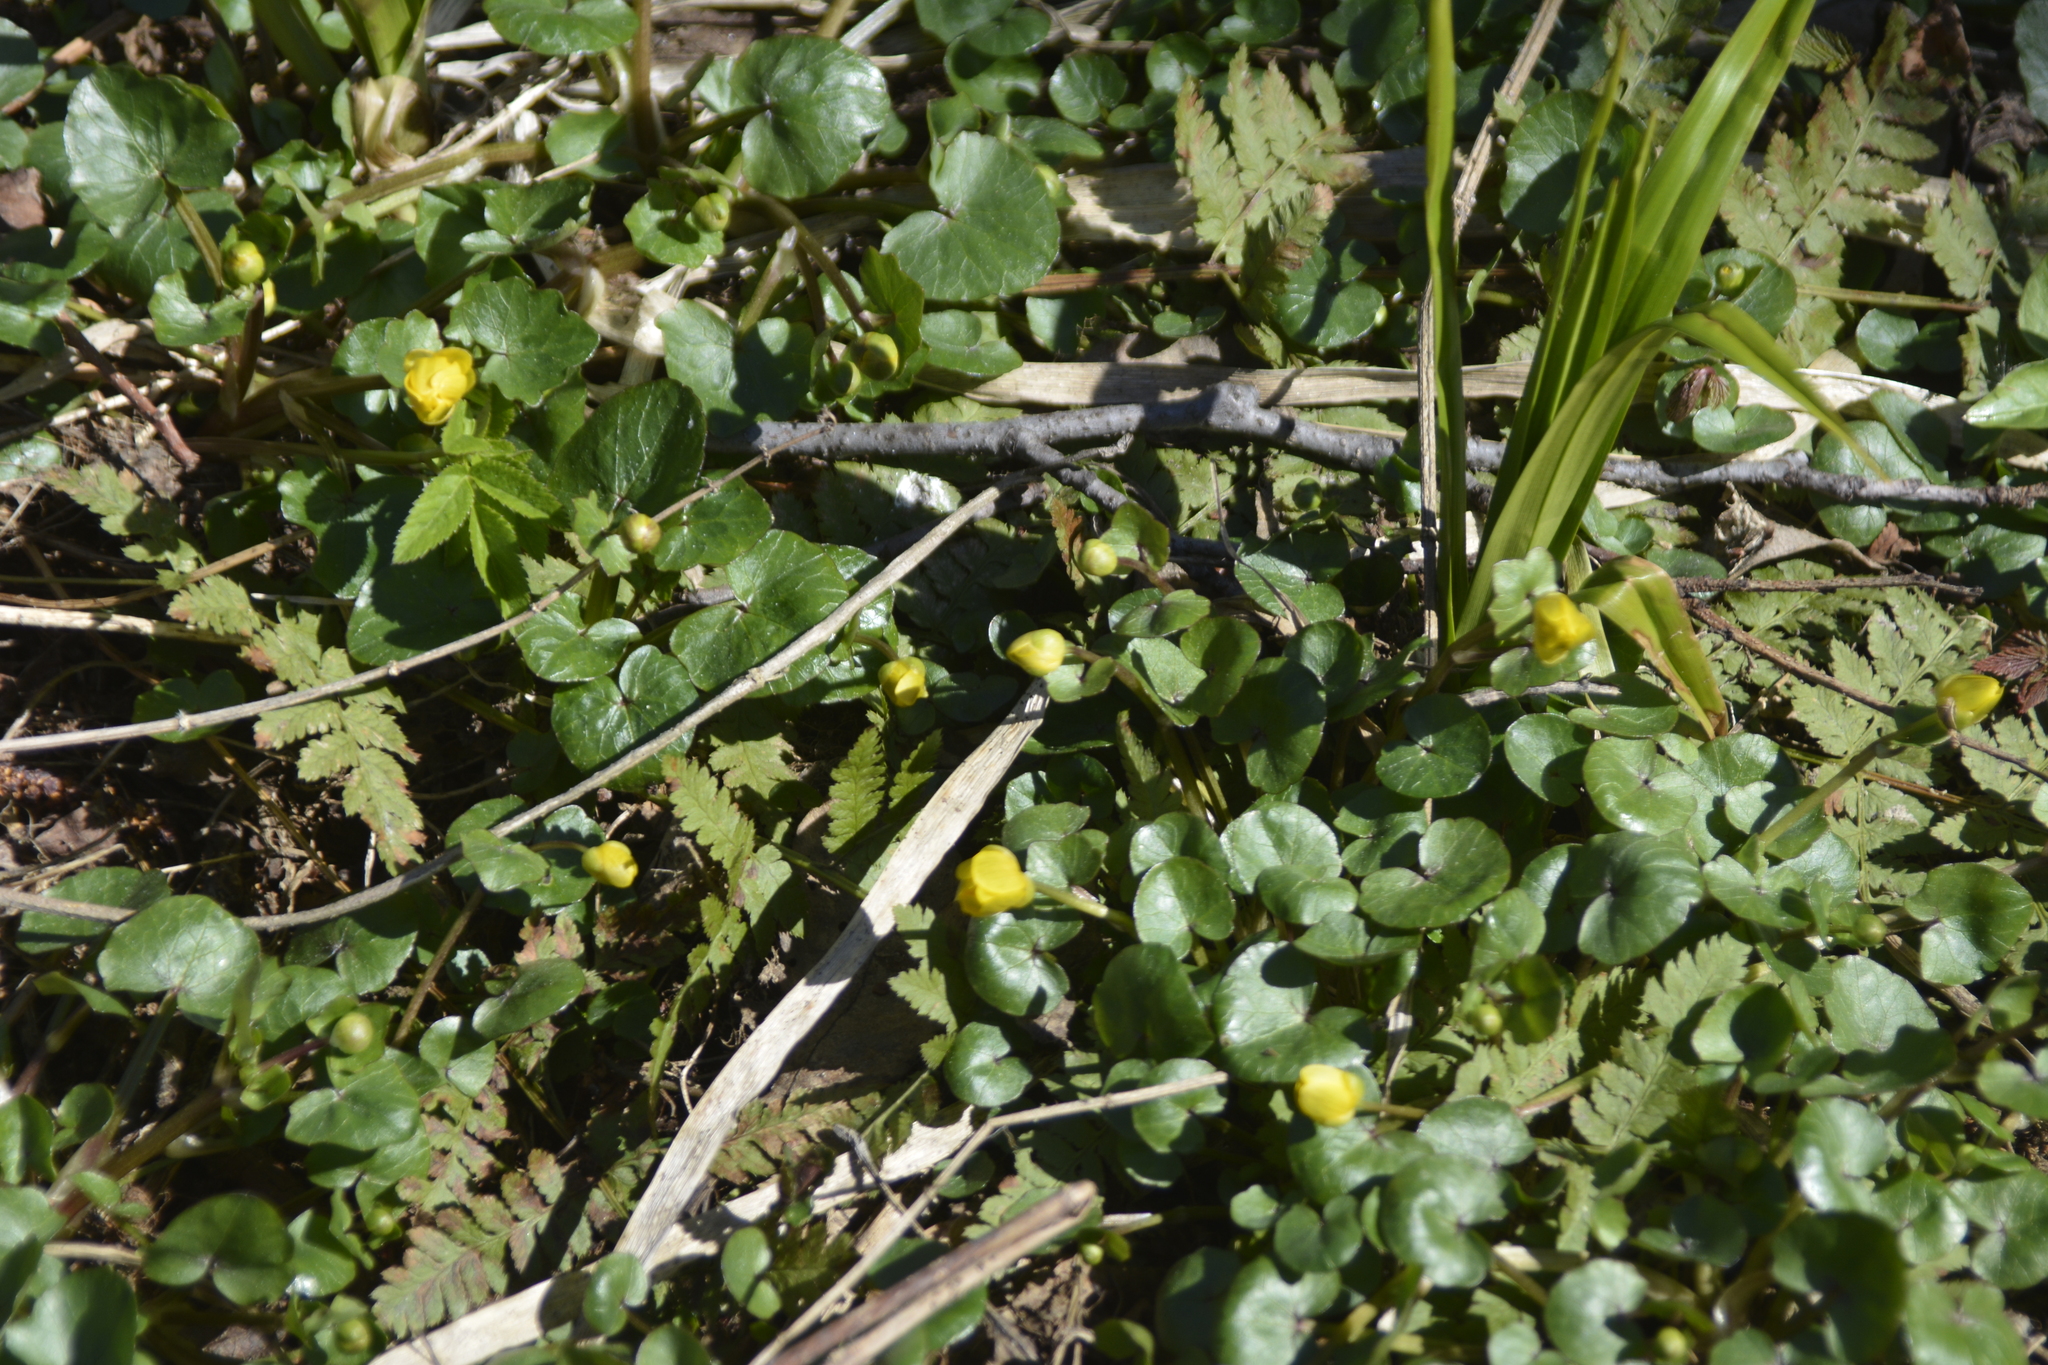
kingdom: Plantae
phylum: Tracheophyta
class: Magnoliopsida
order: Ranunculales
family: Ranunculaceae
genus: Ficaria
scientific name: Ficaria verna
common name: Lesser celandine
